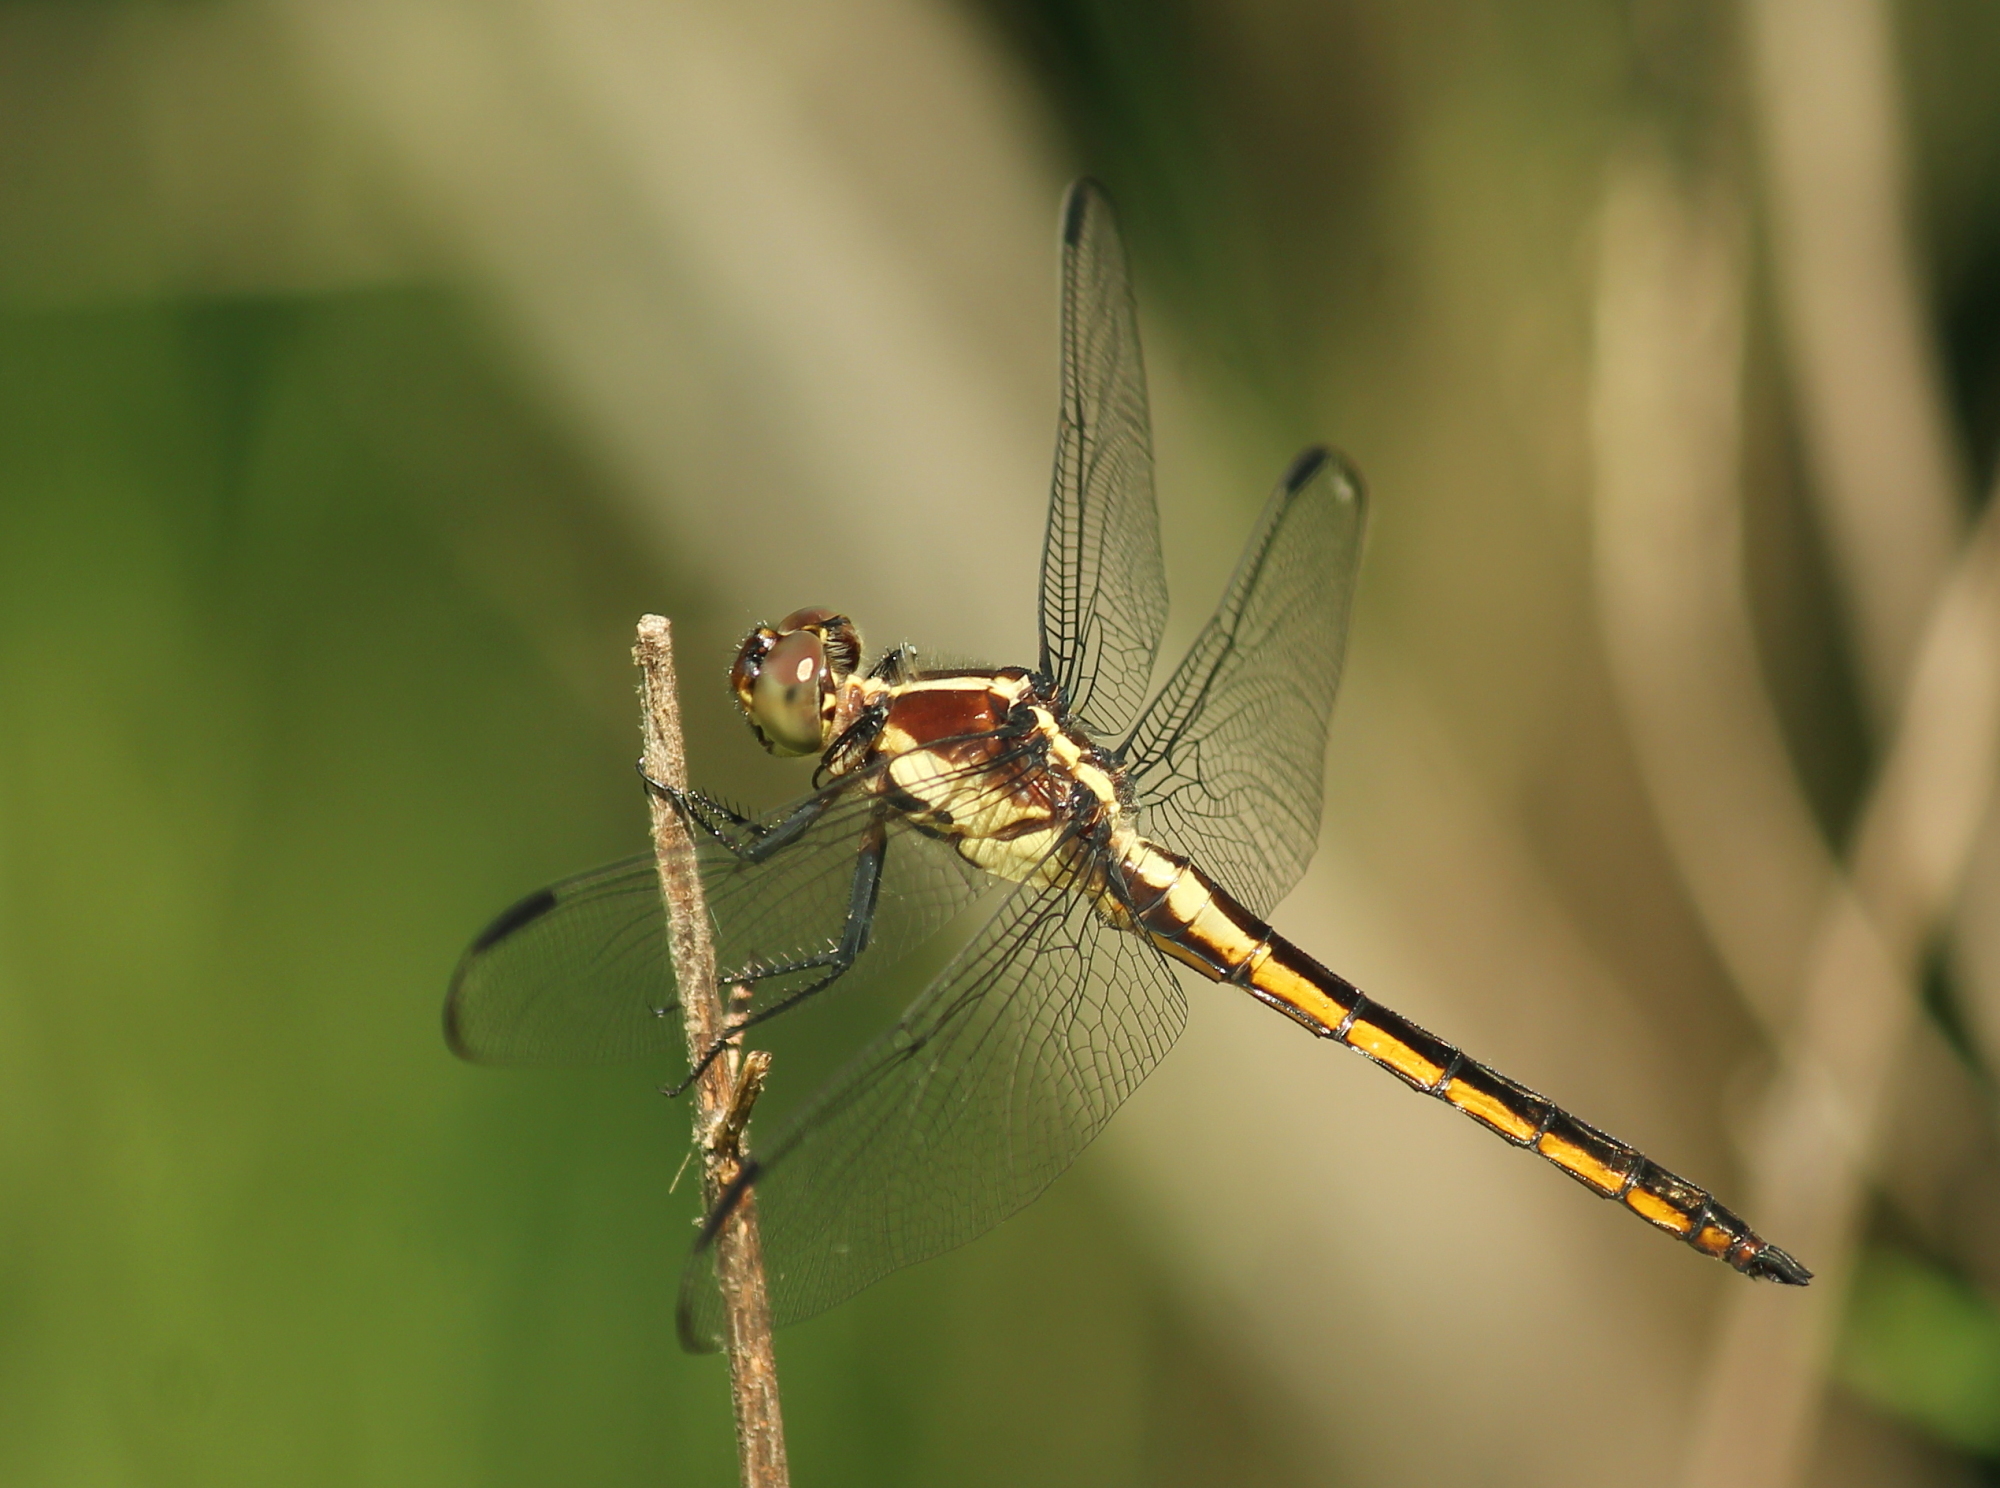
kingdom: Animalia
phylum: Arthropoda
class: Insecta
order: Odonata
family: Libellulidae
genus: Libellula
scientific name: Libellula incesta
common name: Slaty skimmer
